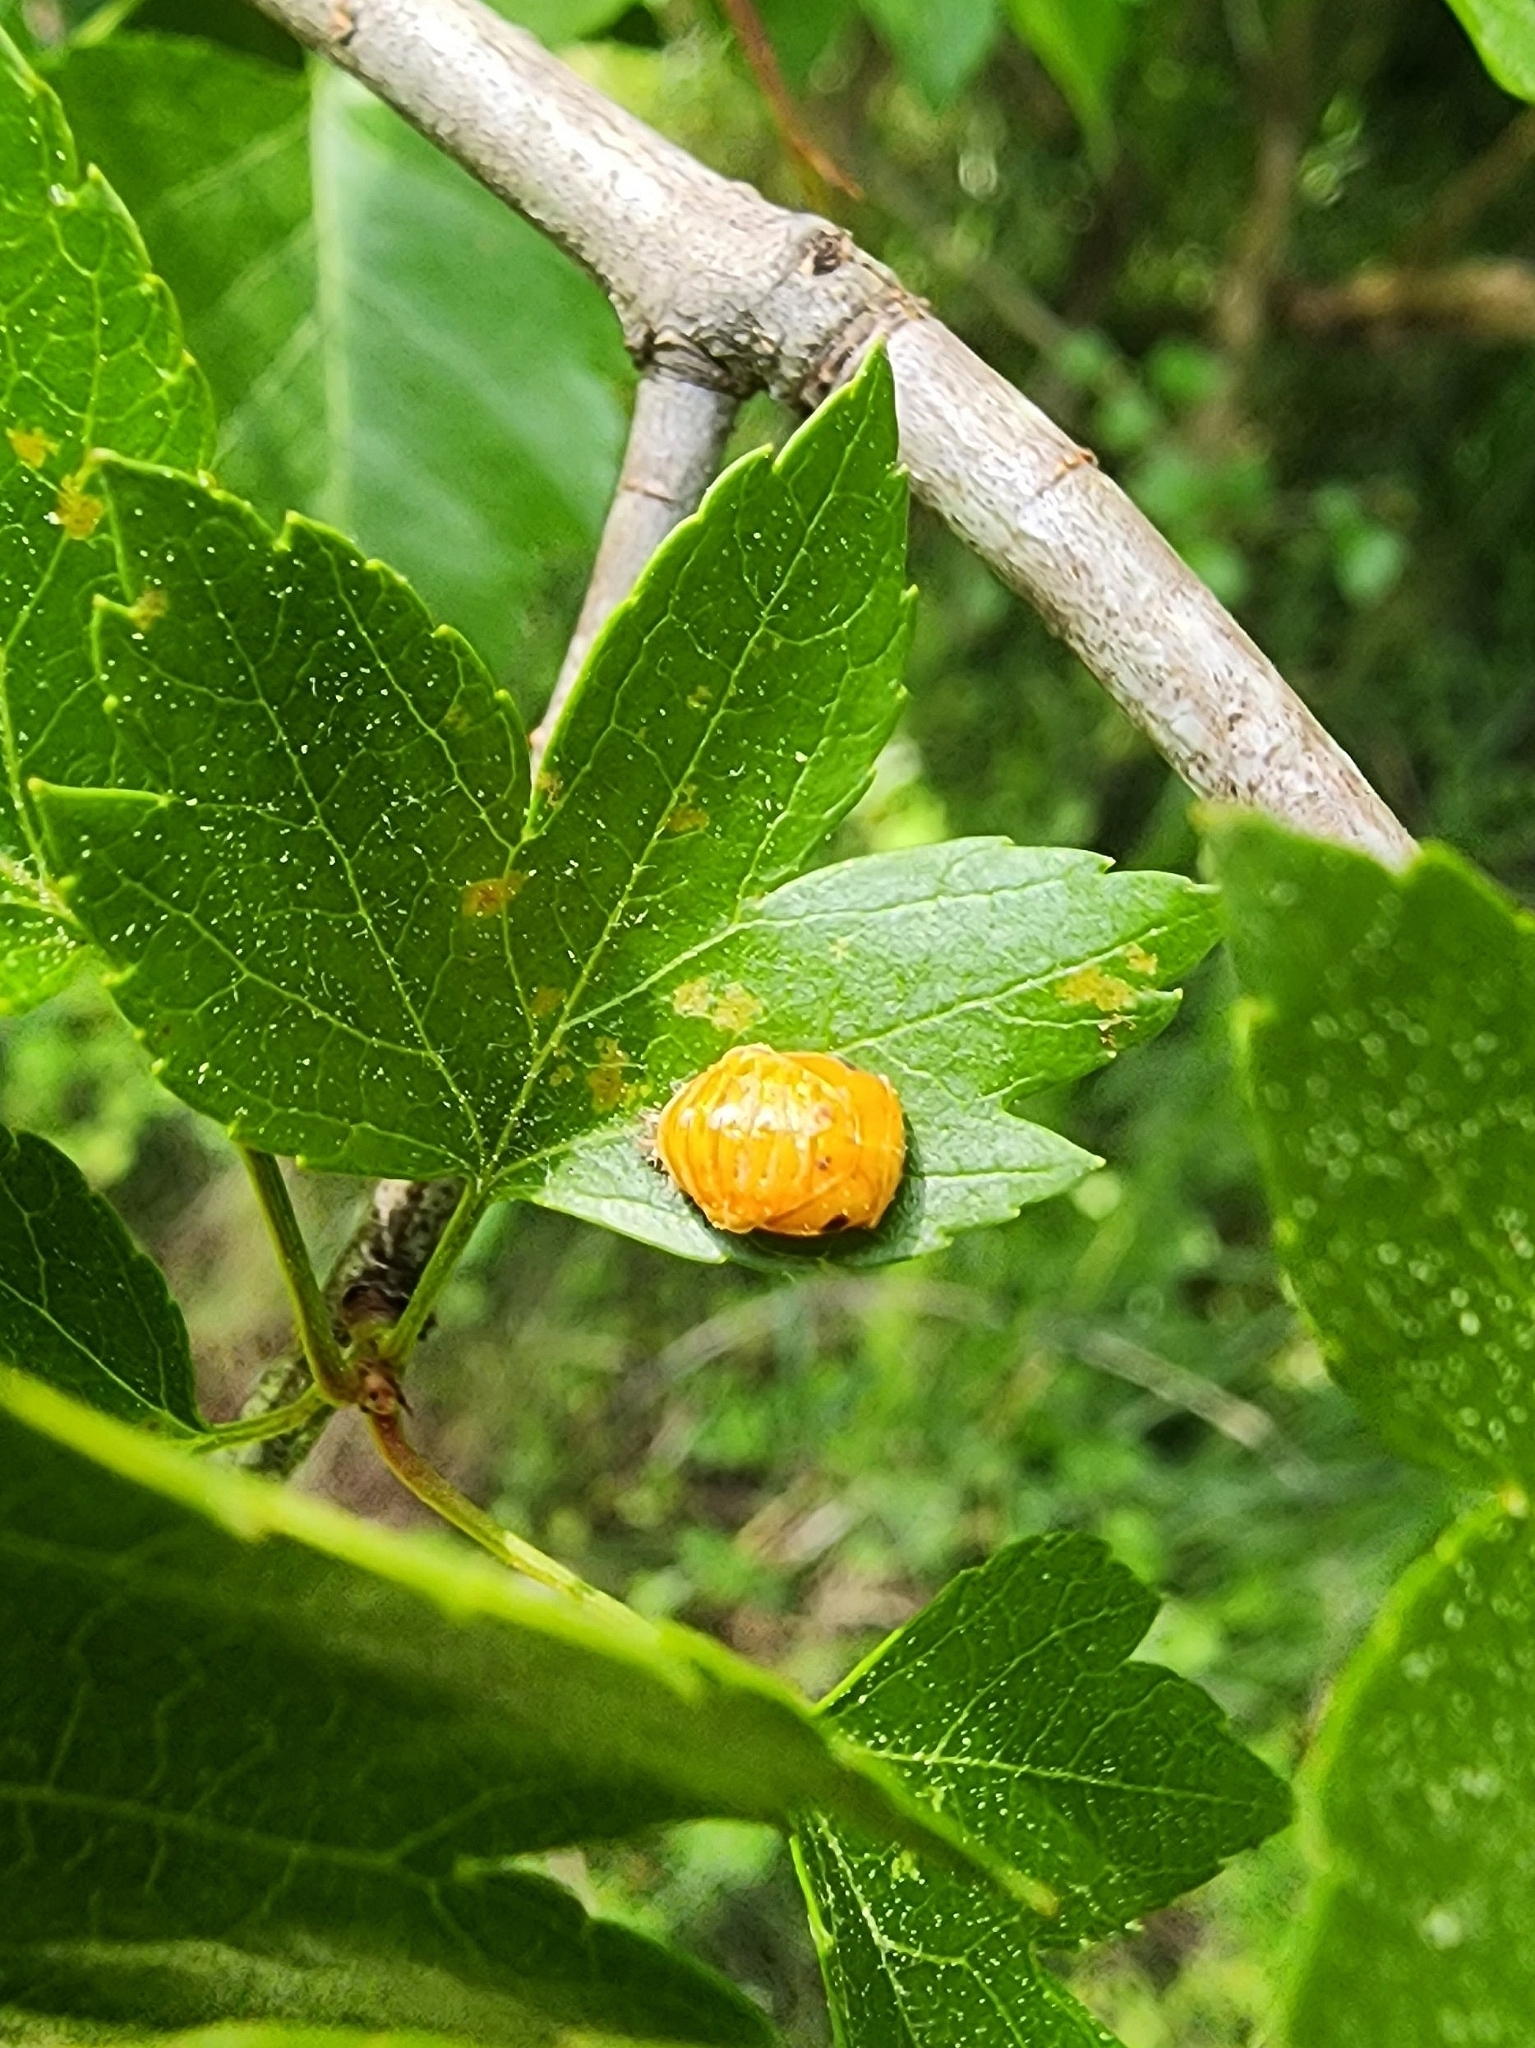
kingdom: Animalia
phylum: Arthropoda
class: Insecta
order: Coleoptera
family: Coccinellidae
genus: Harmonia
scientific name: Harmonia axyridis
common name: Harlequin ladybird
